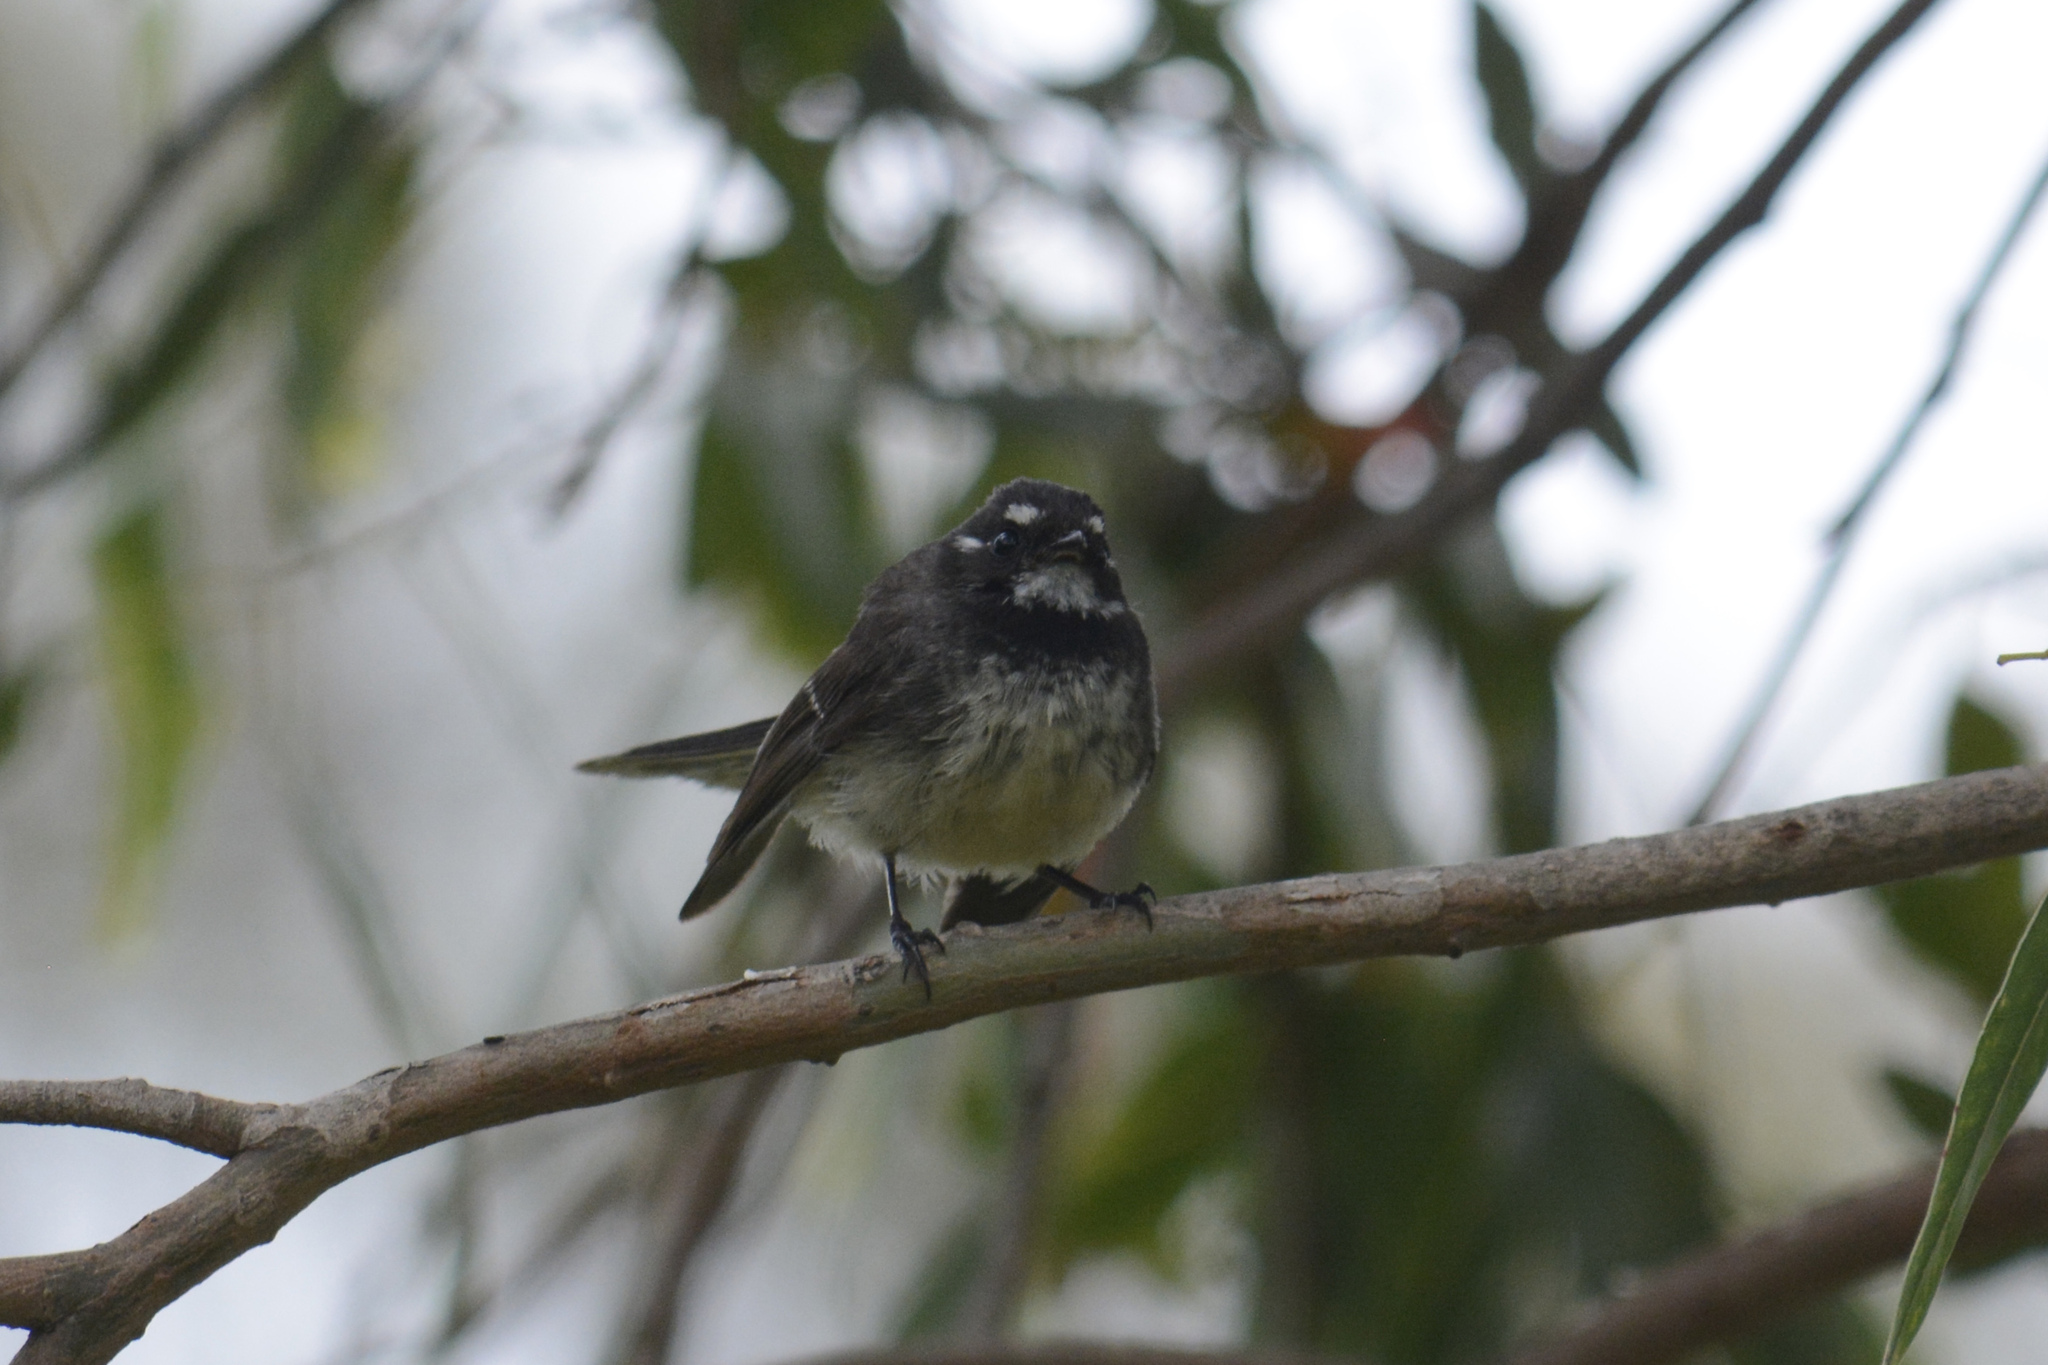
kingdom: Animalia
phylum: Chordata
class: Aves
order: Passeriformes
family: Rhipiduridae
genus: Rhipidura
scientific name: Rhipidura albiscapa
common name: Grey fantail
